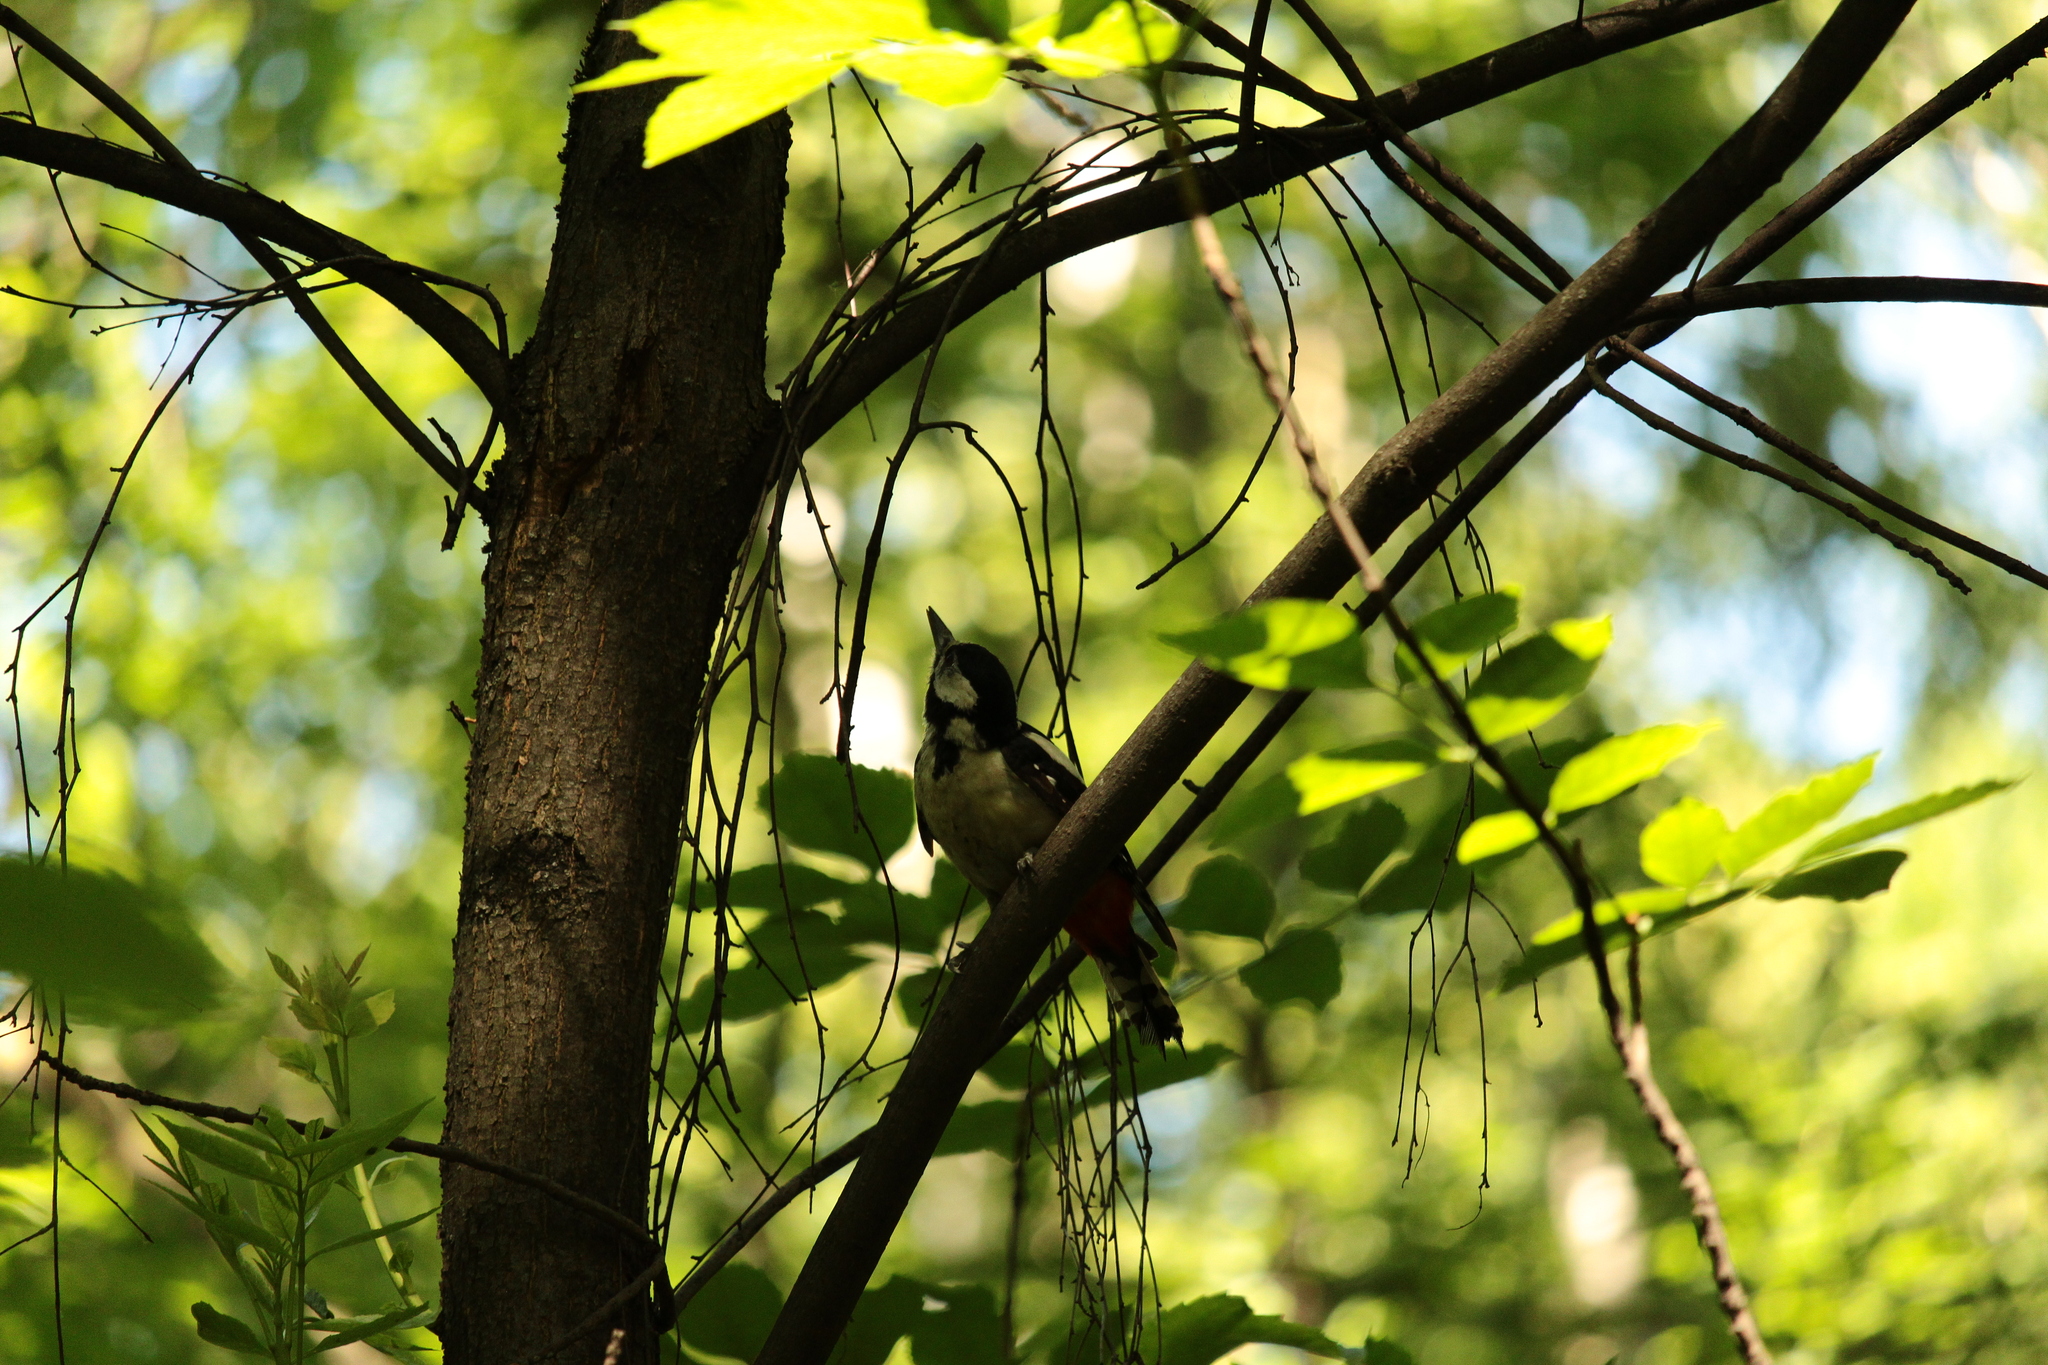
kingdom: Animalia
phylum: Chordata
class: Aves
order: Piciformes
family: Picidae
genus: Dendrocopos
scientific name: Dendrocopos major
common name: Great spotted woodpecker
